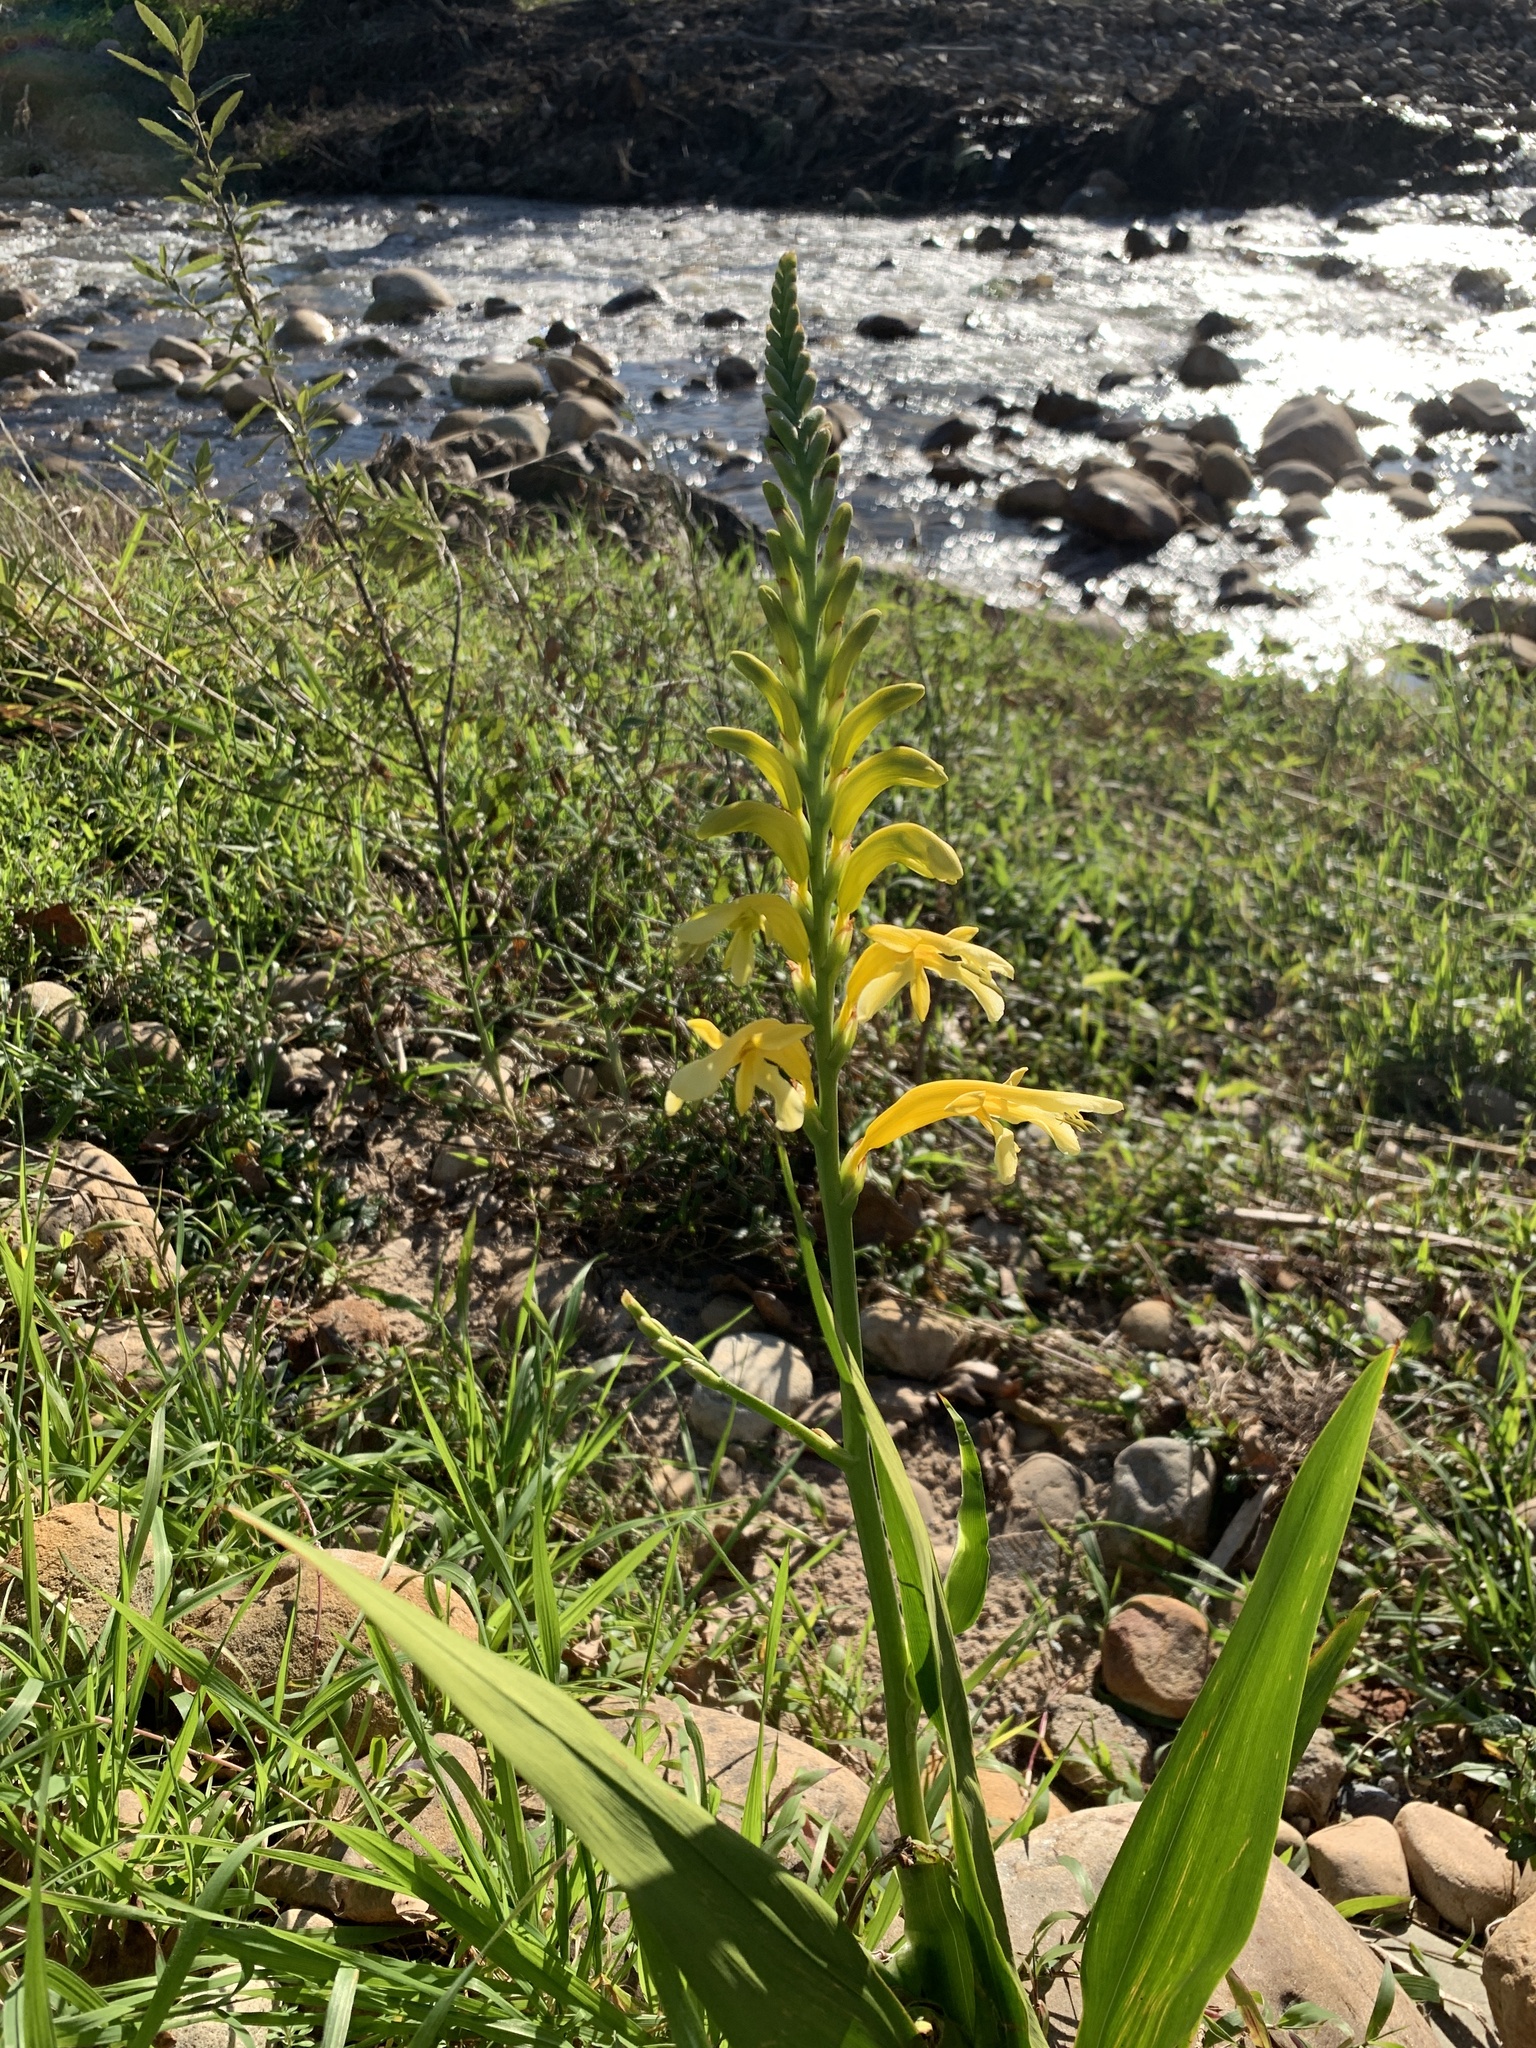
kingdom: Plantae
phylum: Tracheophyta
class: Liliopsida
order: Asparagales
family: Iridaceae
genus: Chasmanthe
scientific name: Chasmanthe floribunda
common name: African cornflag
